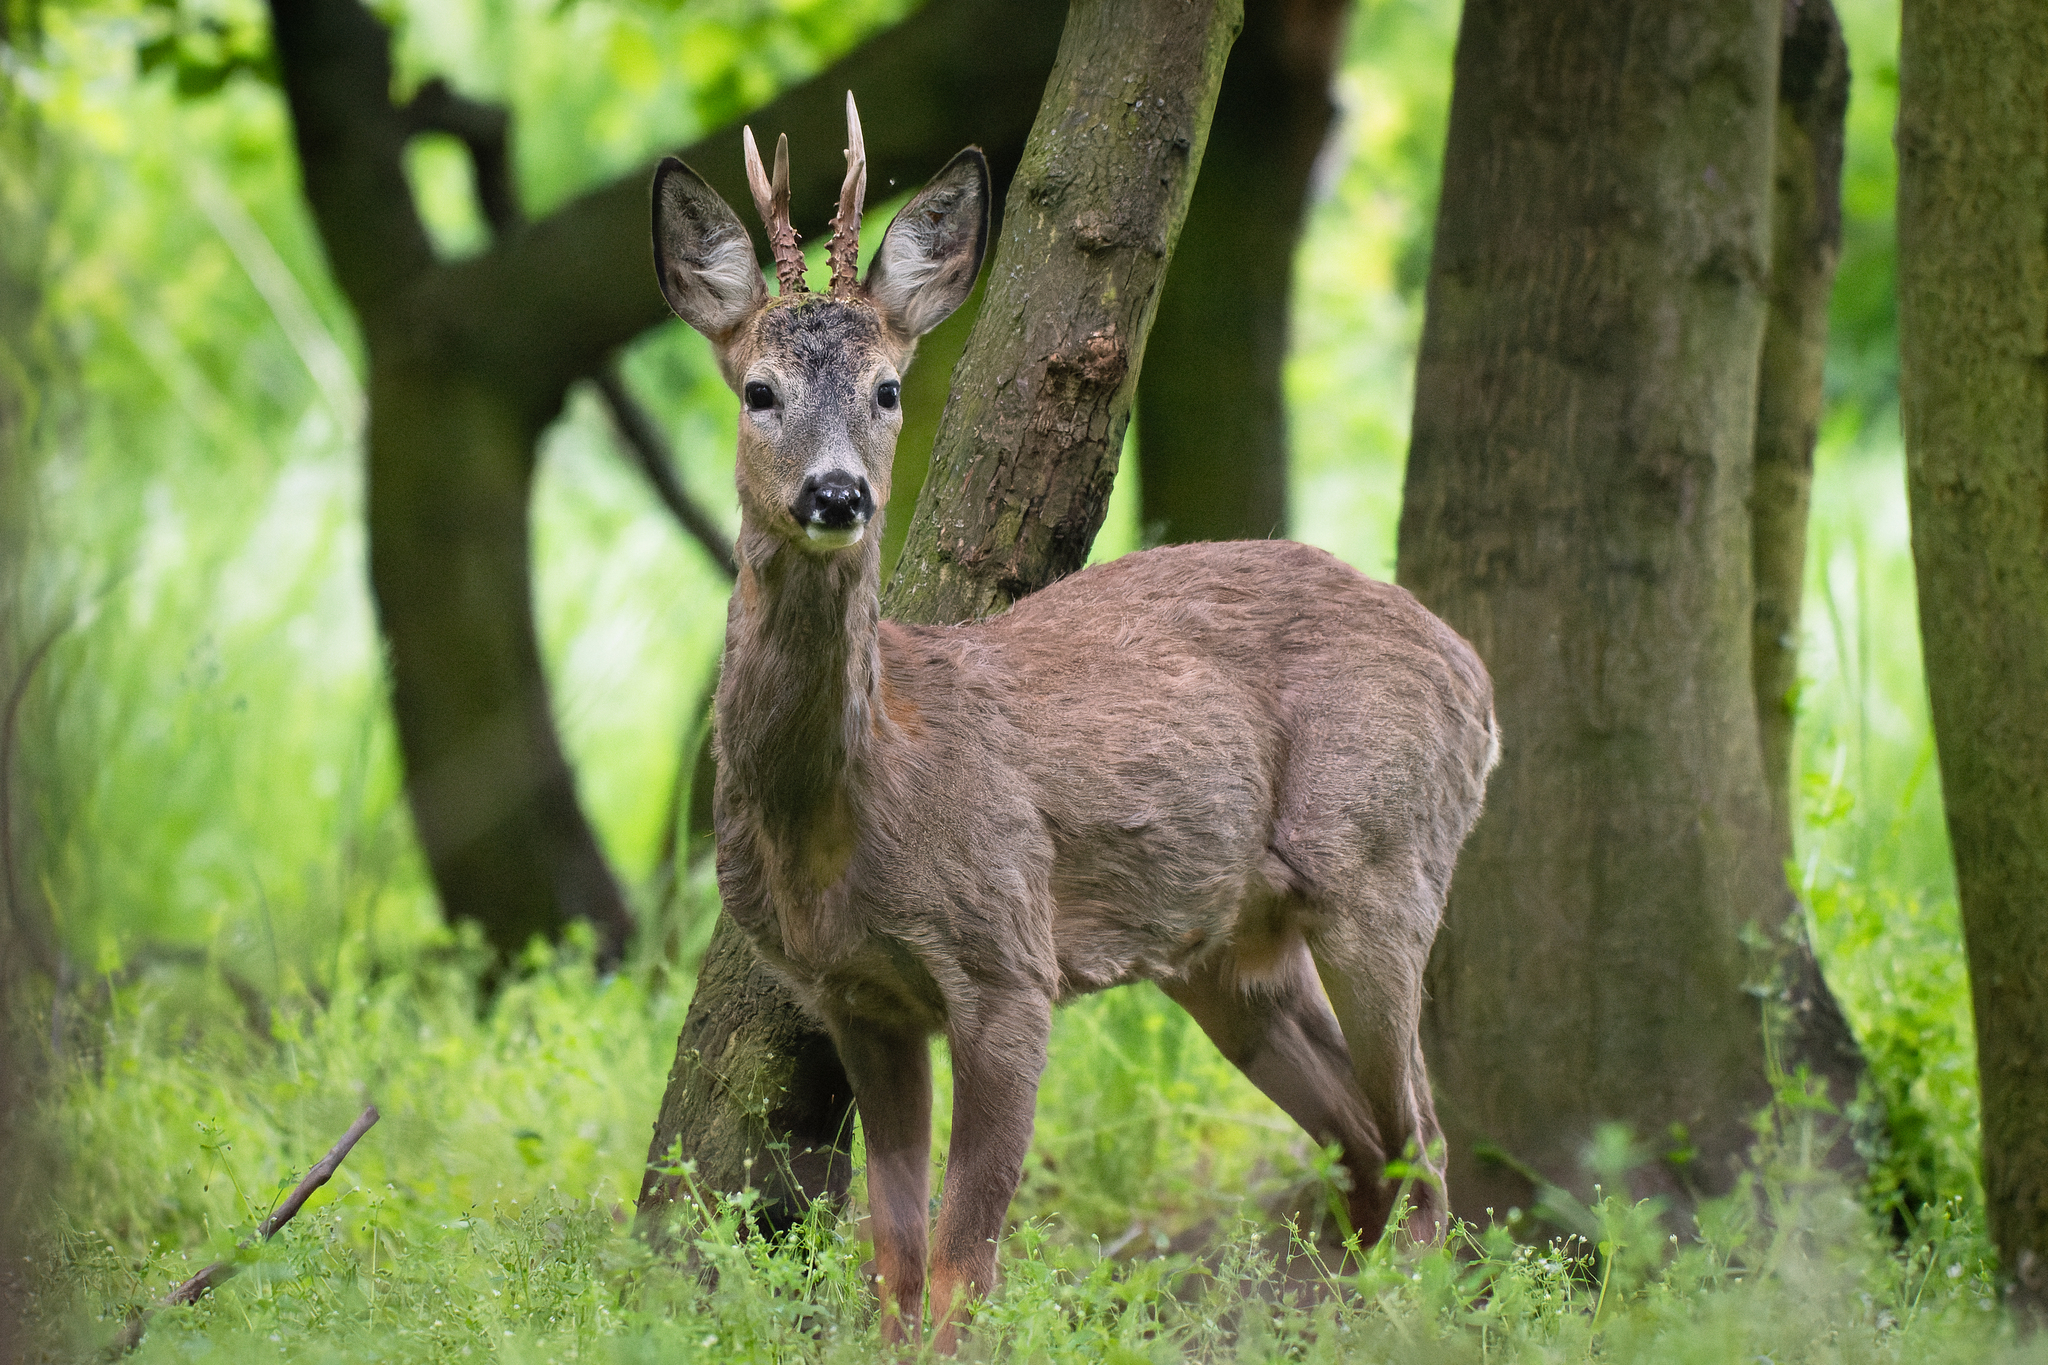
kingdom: Animalia
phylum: Chordata
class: Mammalia
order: Artiodactyla
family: Cervidae
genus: Capreolus
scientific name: Capreolus capreolus
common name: Western roe deer
